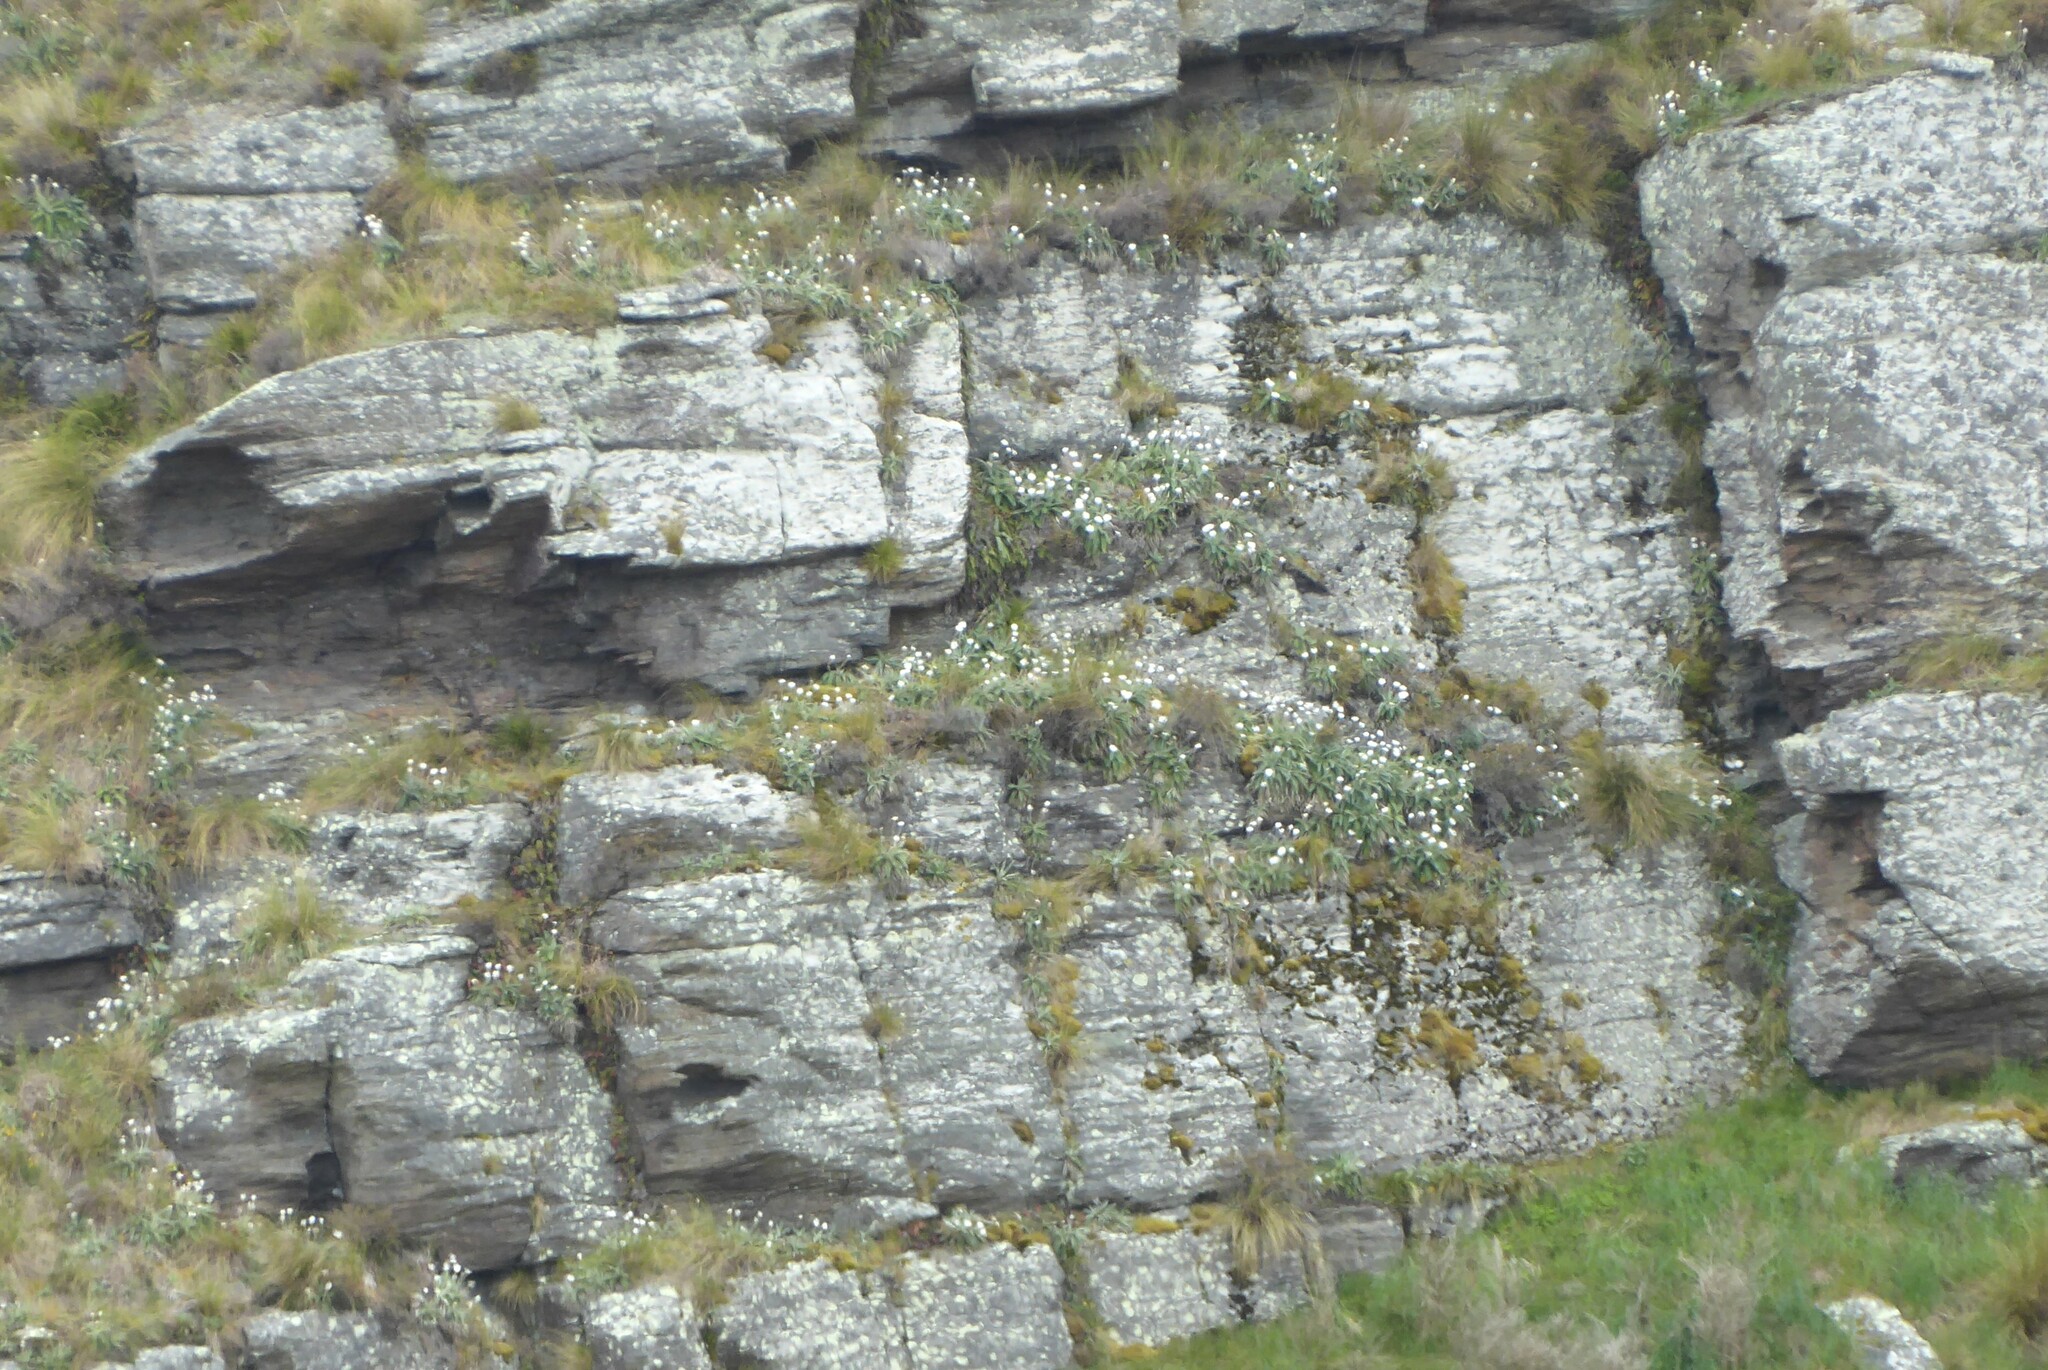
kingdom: Plantae
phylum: Tracheophyta
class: Magnoliopsida
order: Asterales
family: Asteraceae
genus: Celmisia
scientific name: Celmisia hookeri
